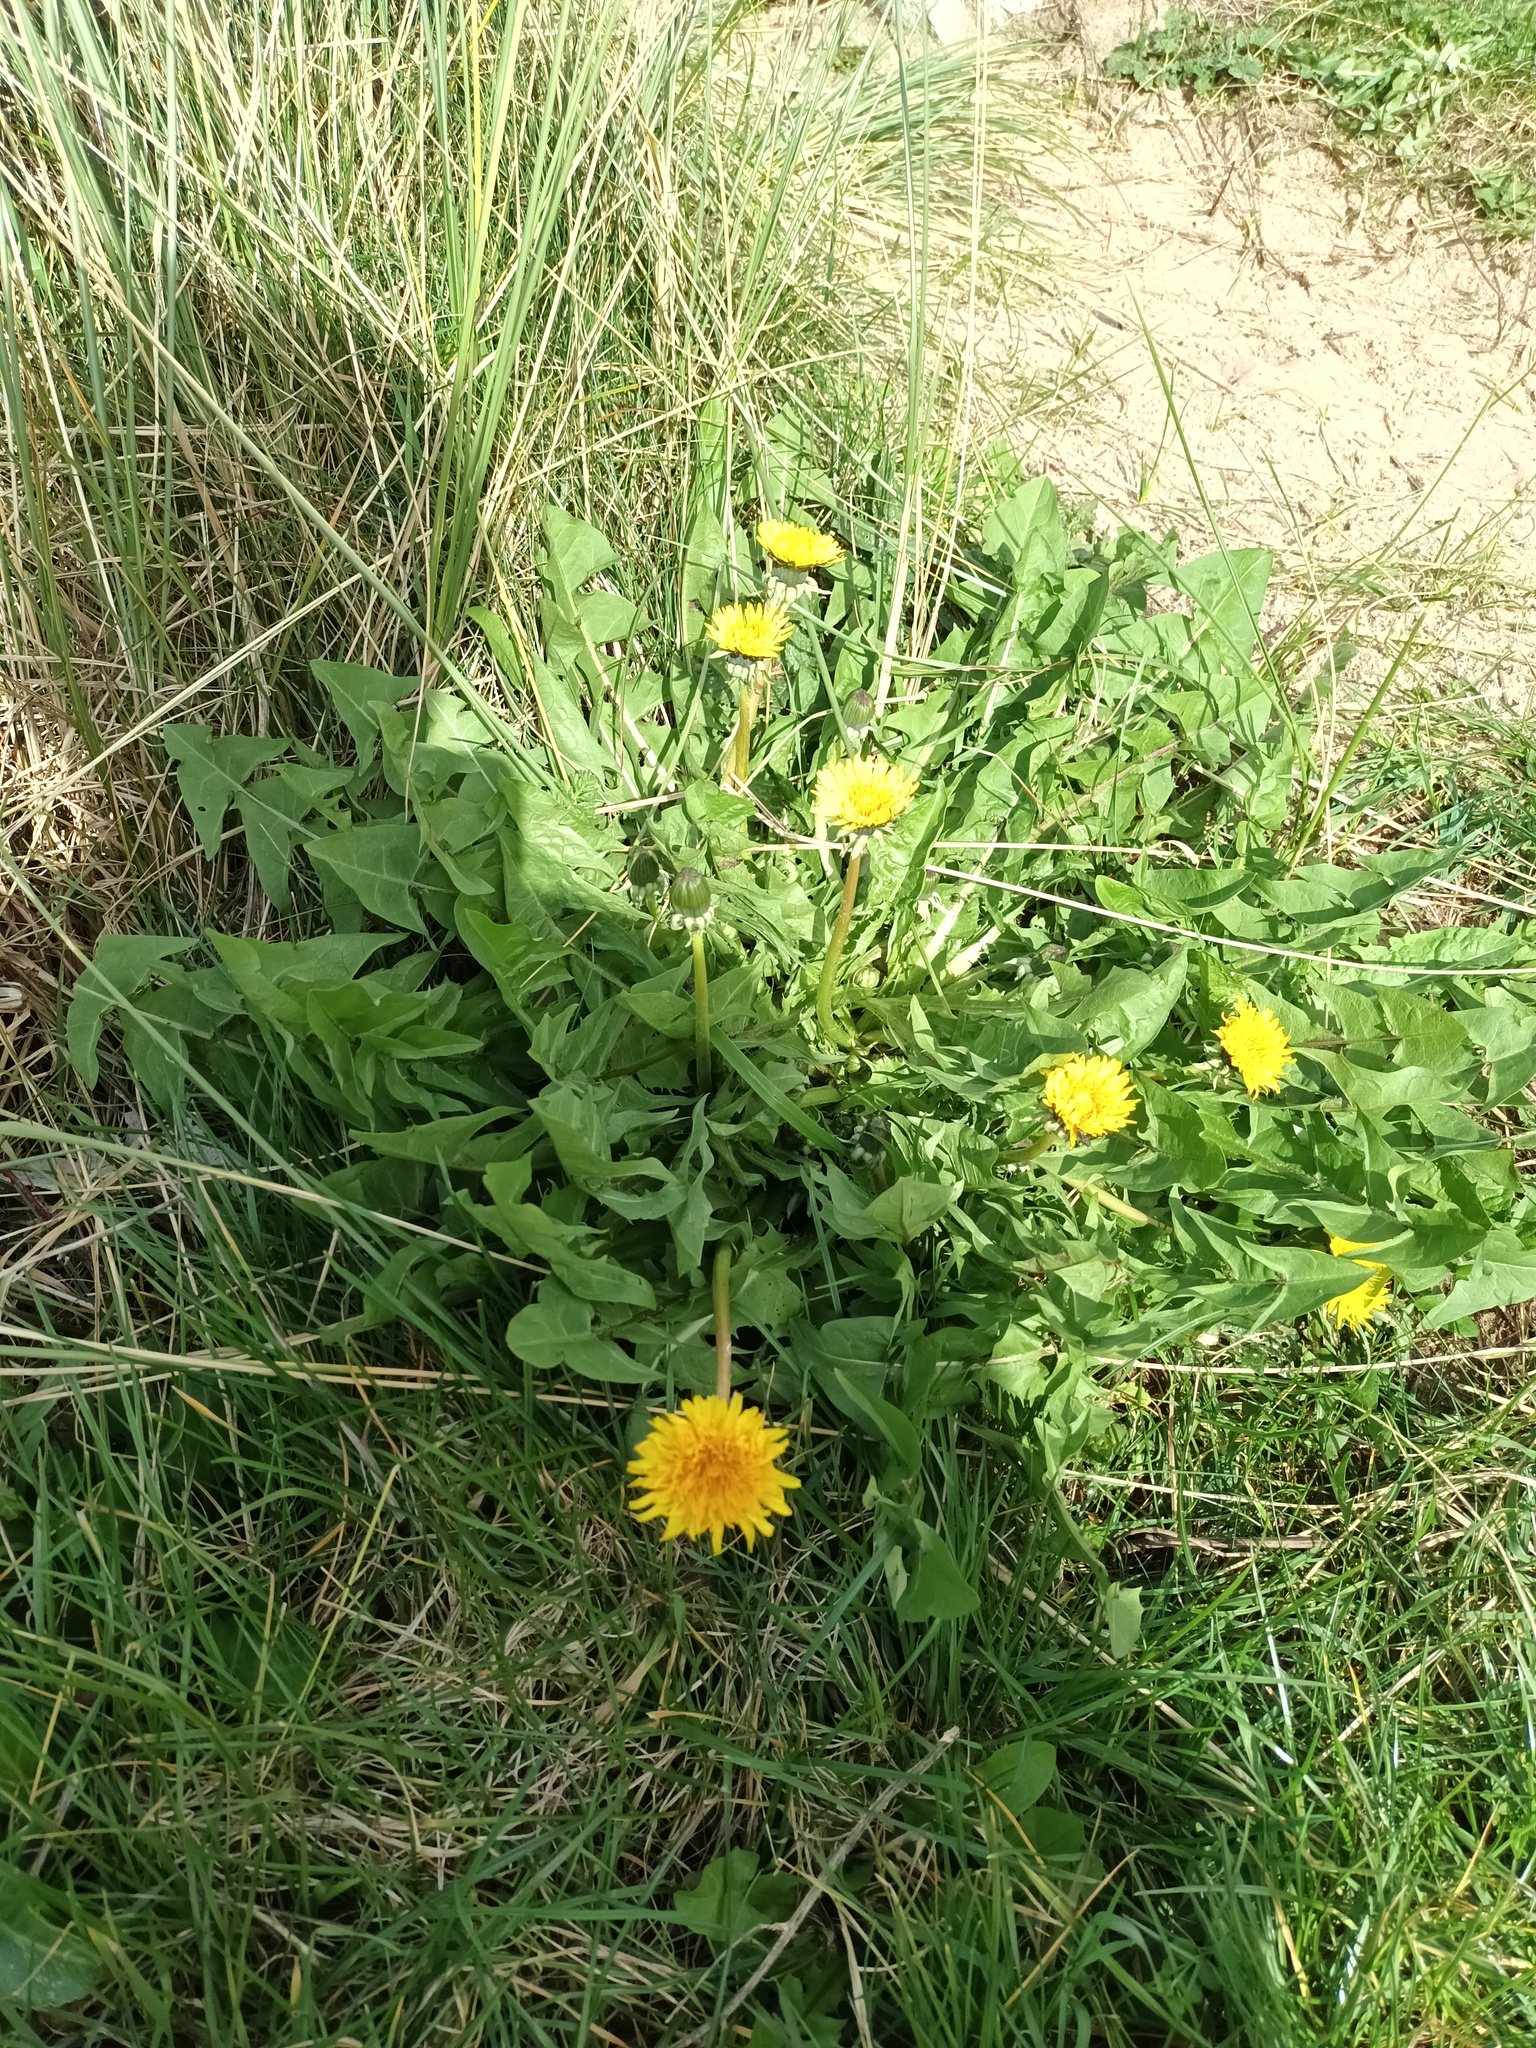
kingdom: Plantae
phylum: Tracheophyta
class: Magnoliopsida
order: Asterales
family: Asteraceae
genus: Taraxacum
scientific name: Taraxacum officinale
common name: Common dandelion
